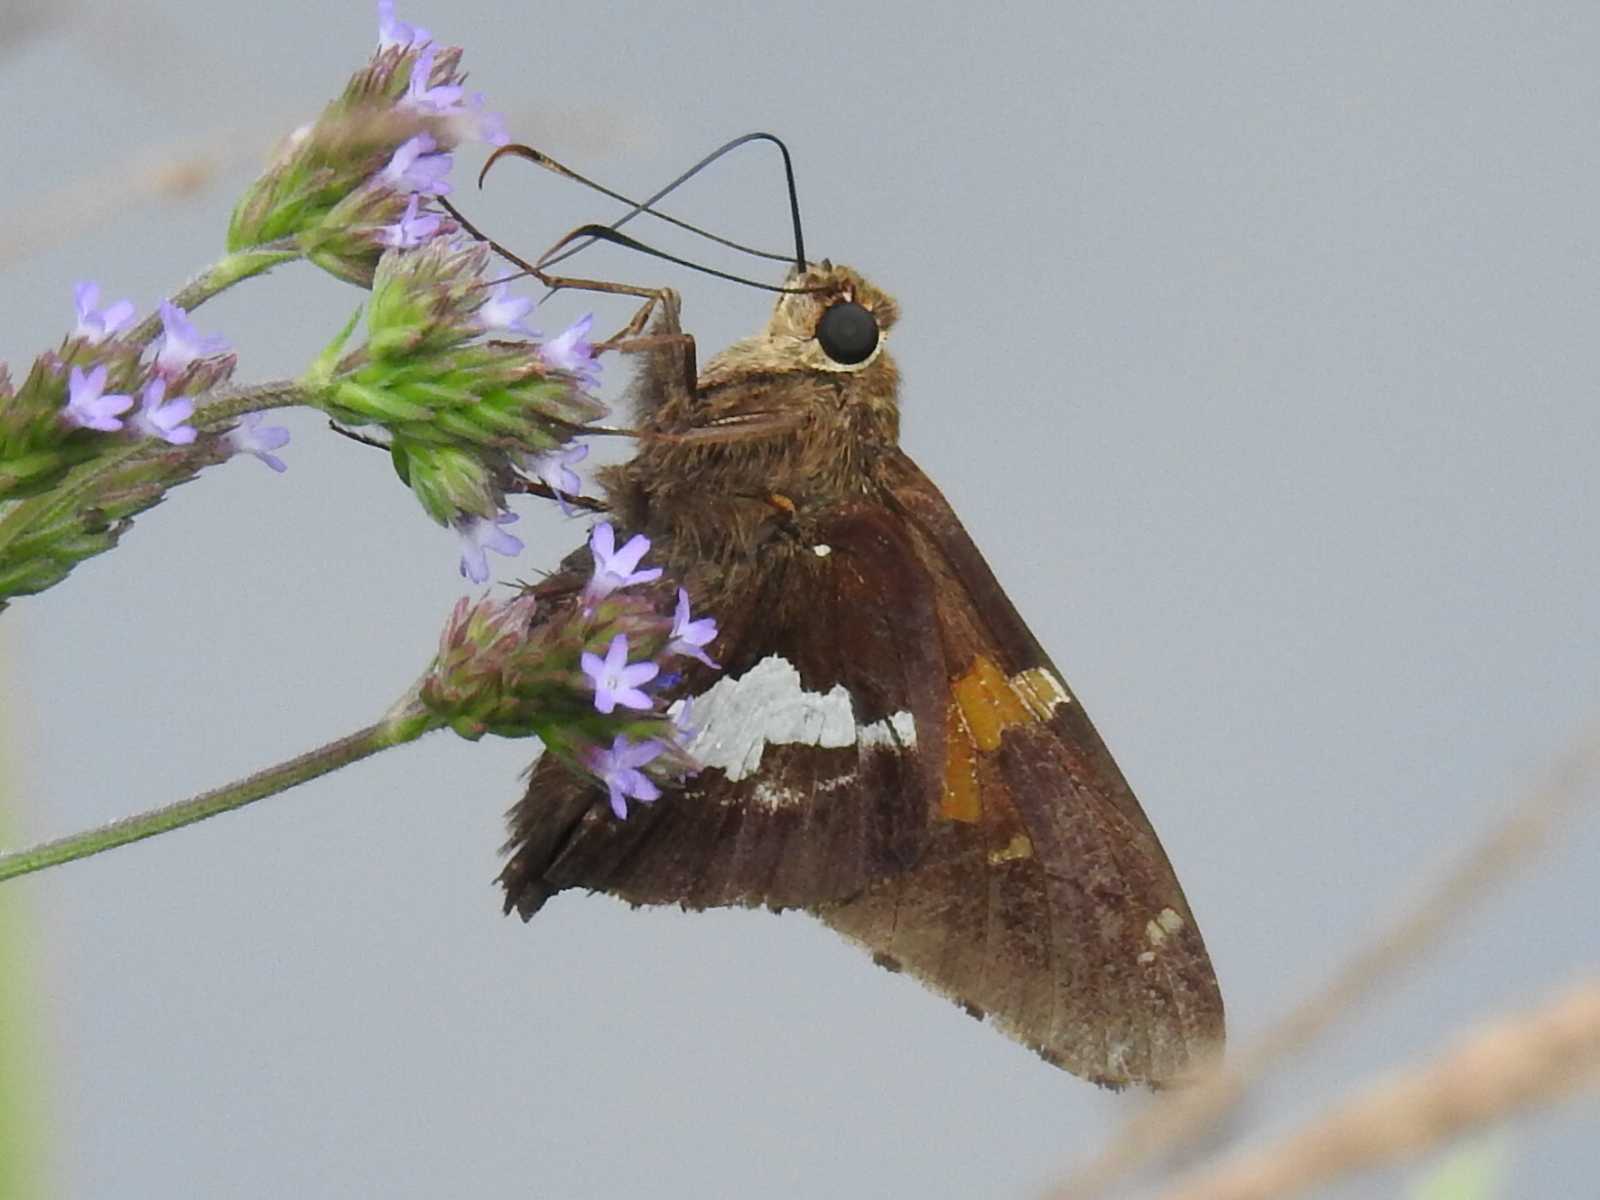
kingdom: Animalia
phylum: Arthropoda
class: Insecta
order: Lepidoptera
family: Hesperiidae
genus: Epargyreus
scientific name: Epargyreus clarus
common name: Silver-spotted skipper
